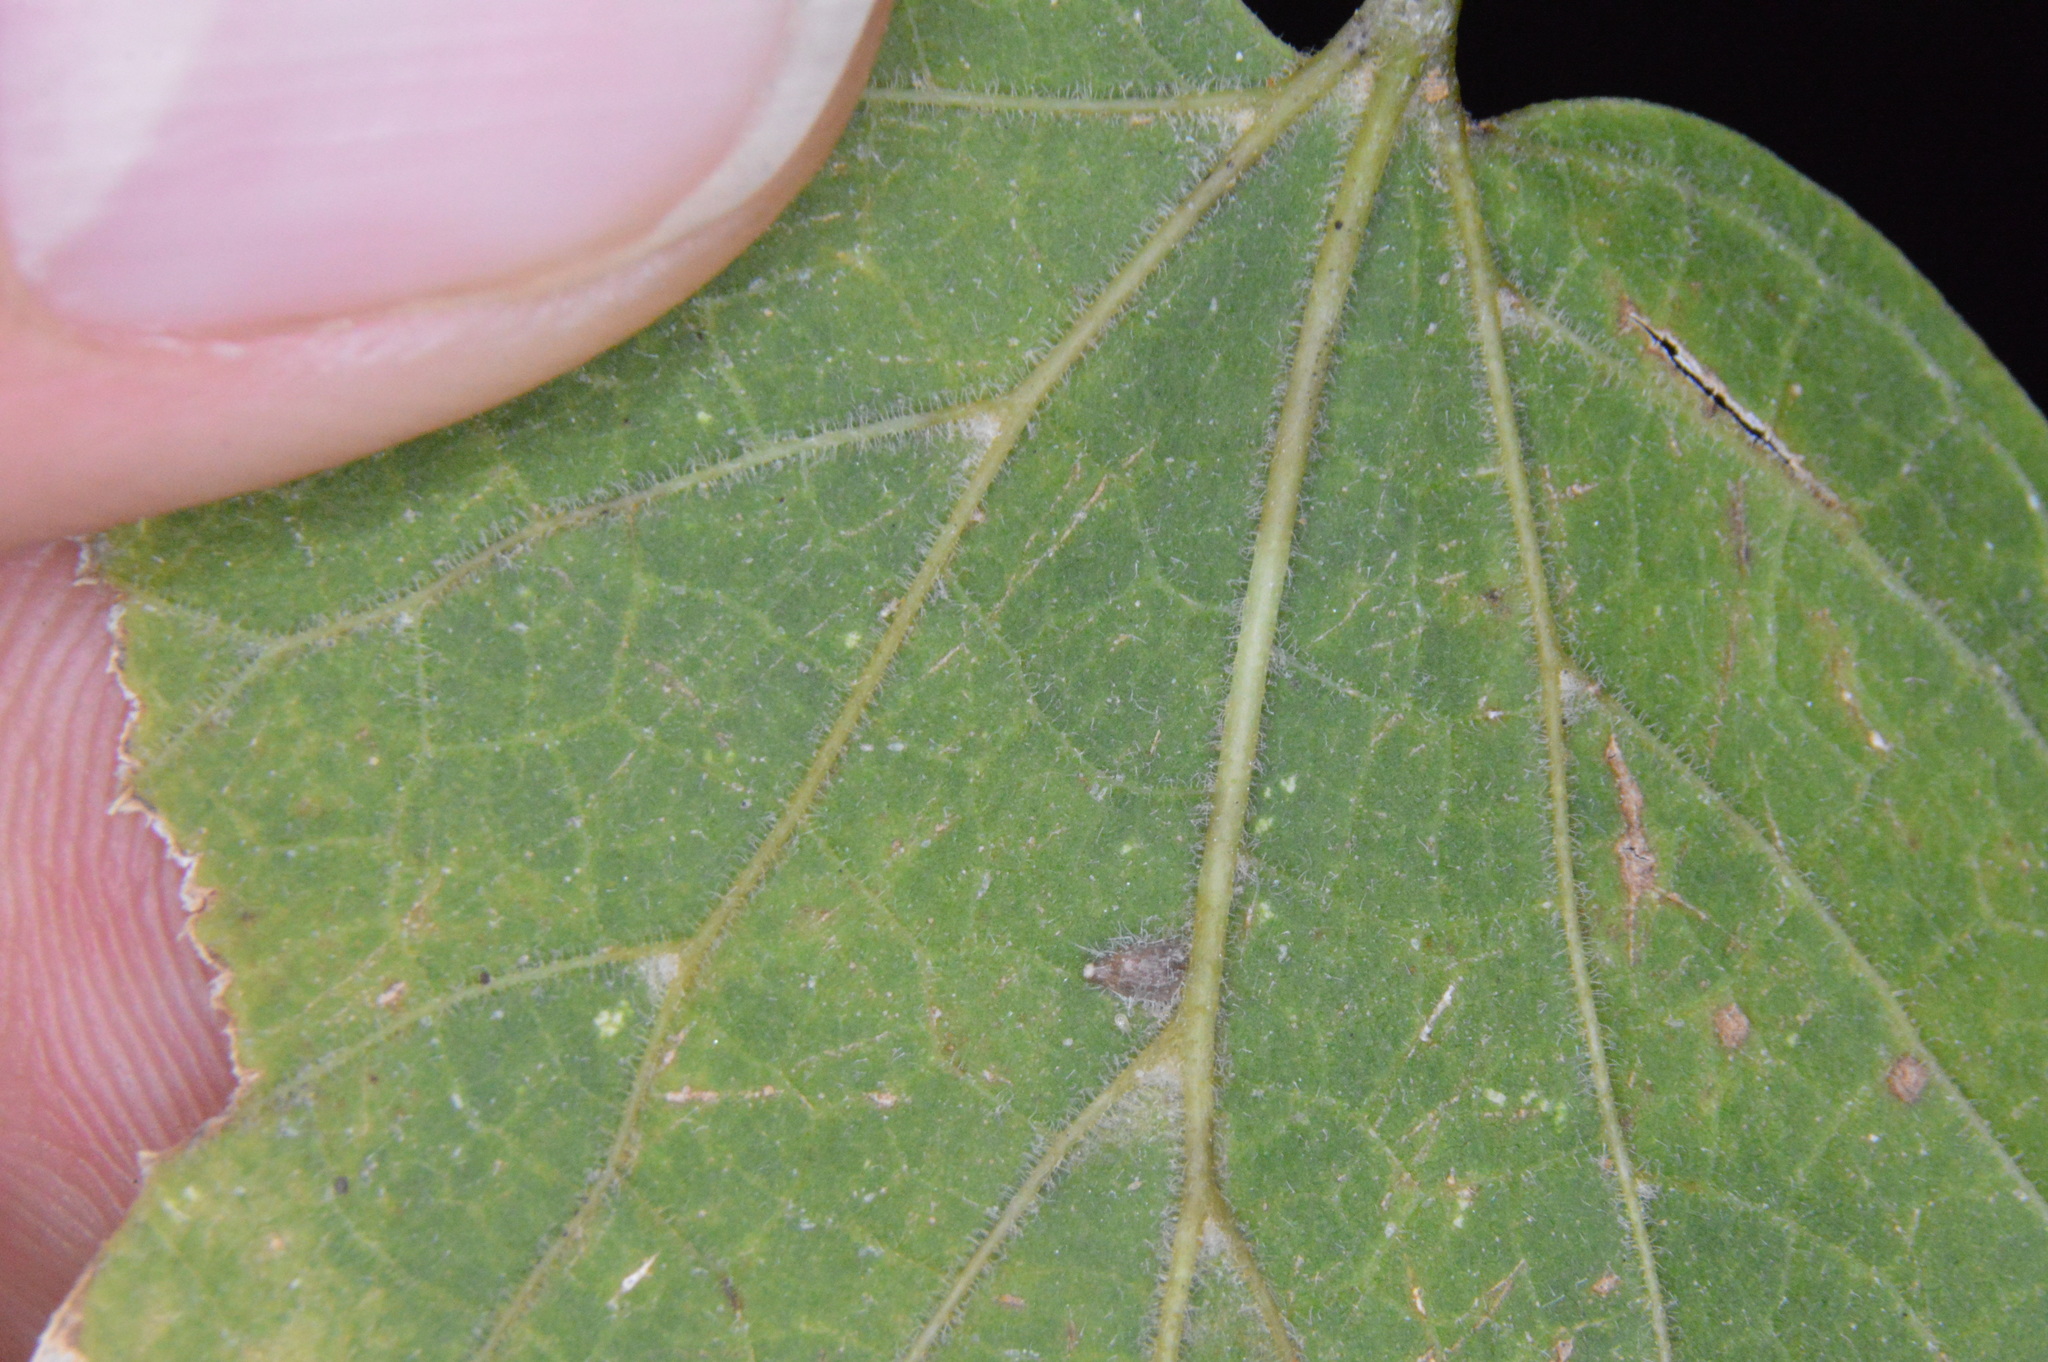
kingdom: Animalia
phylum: Arthropoda
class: Insecta
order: Diptera
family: Cecidomyiidae
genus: Celticecis
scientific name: Celticecis supina
